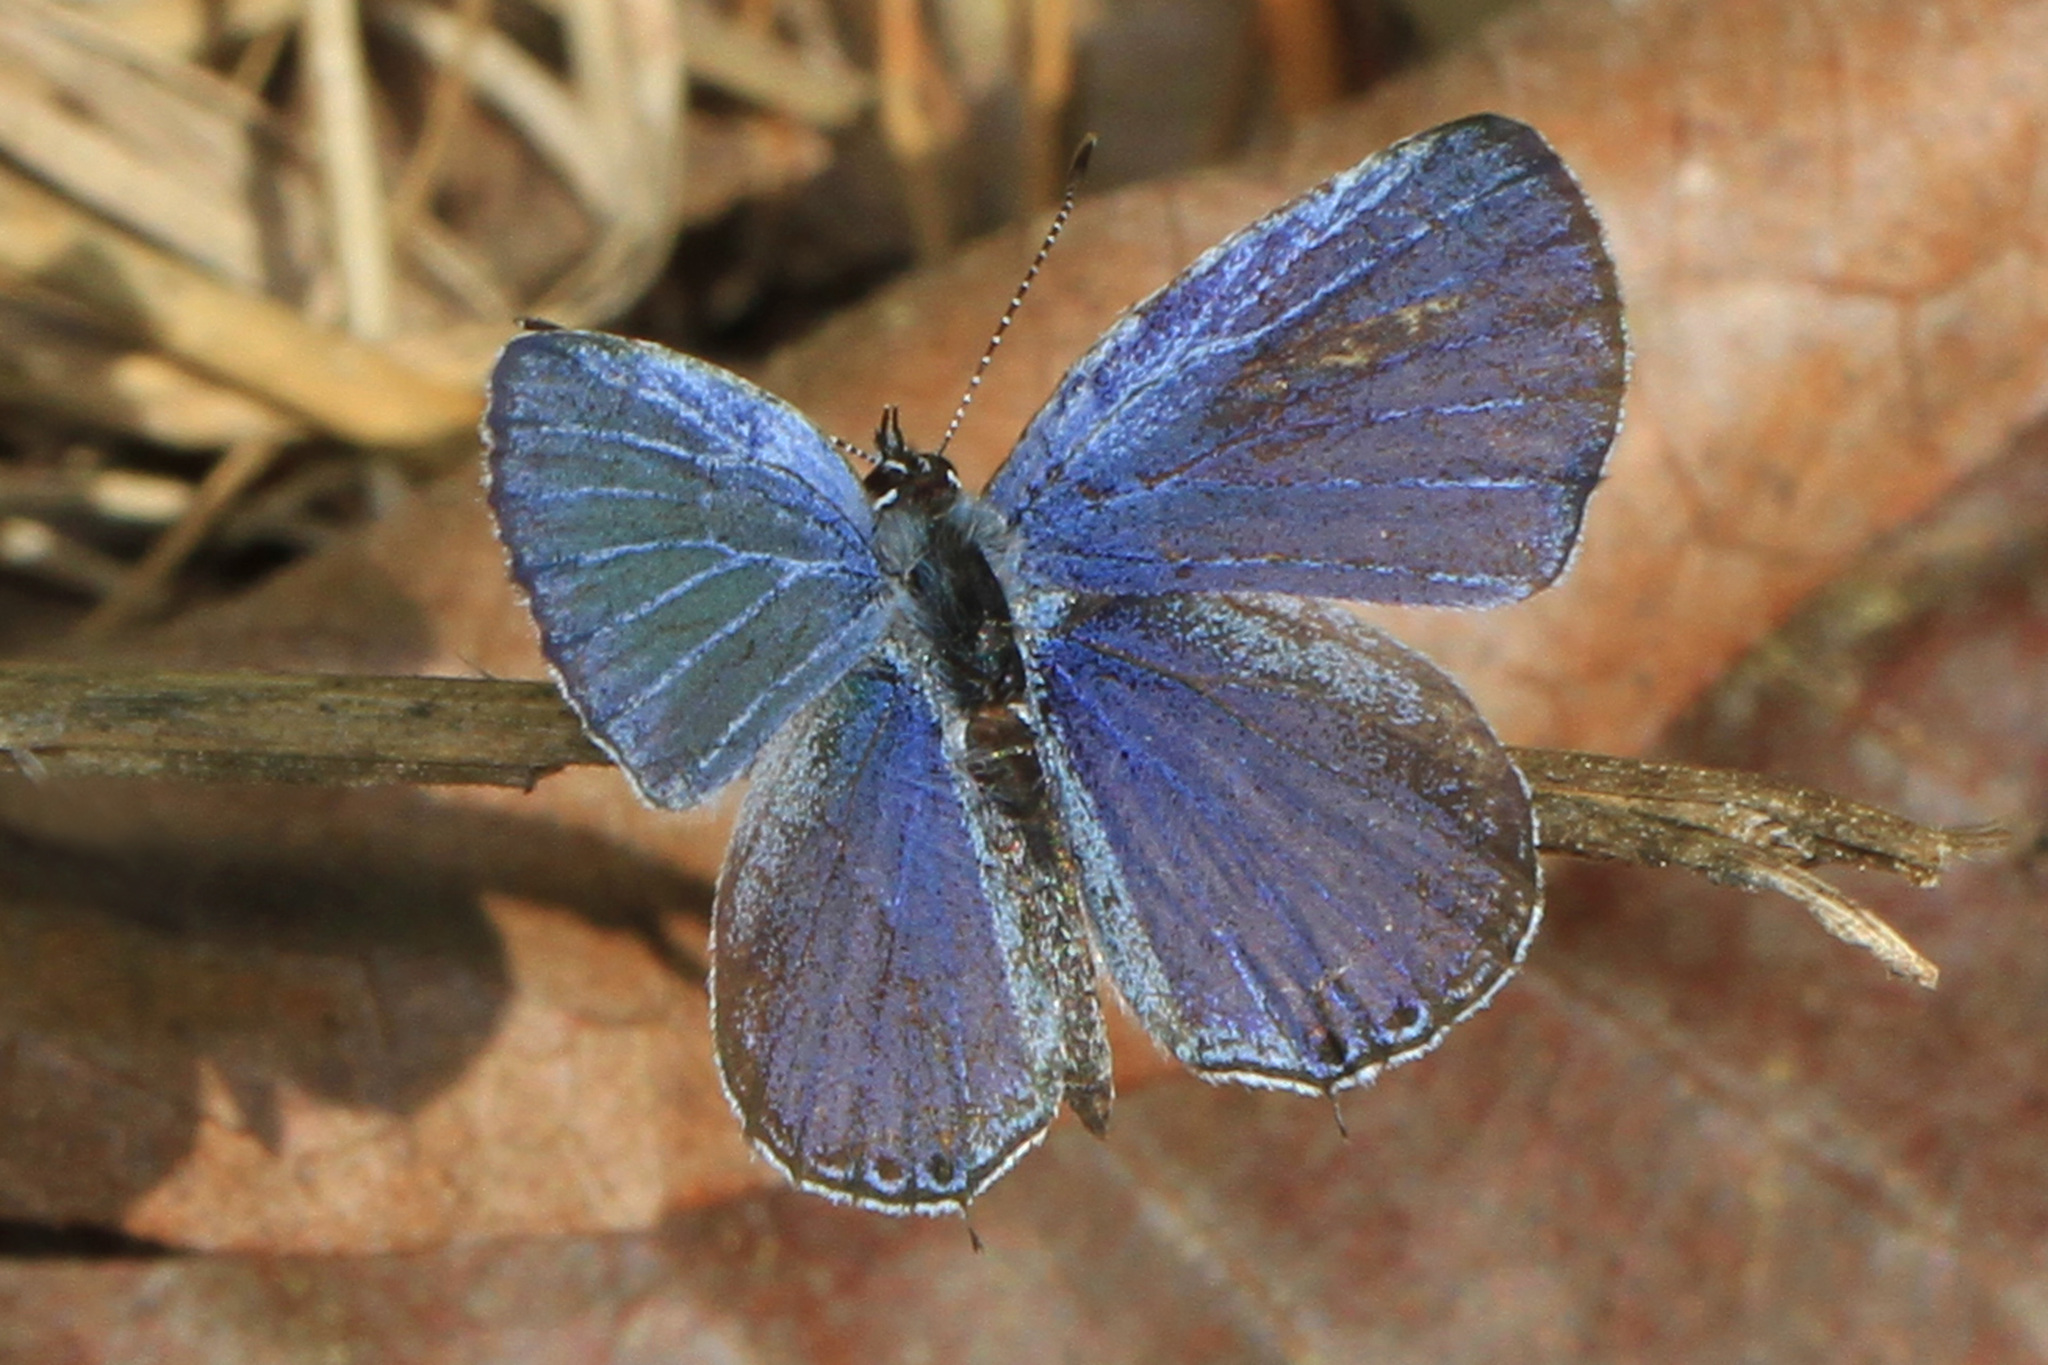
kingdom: Animalia
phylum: Arthropoda
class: Insecta
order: Lepidoptera
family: Lycaenidae
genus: Elkalyce
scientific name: Elkalyce comyntas
